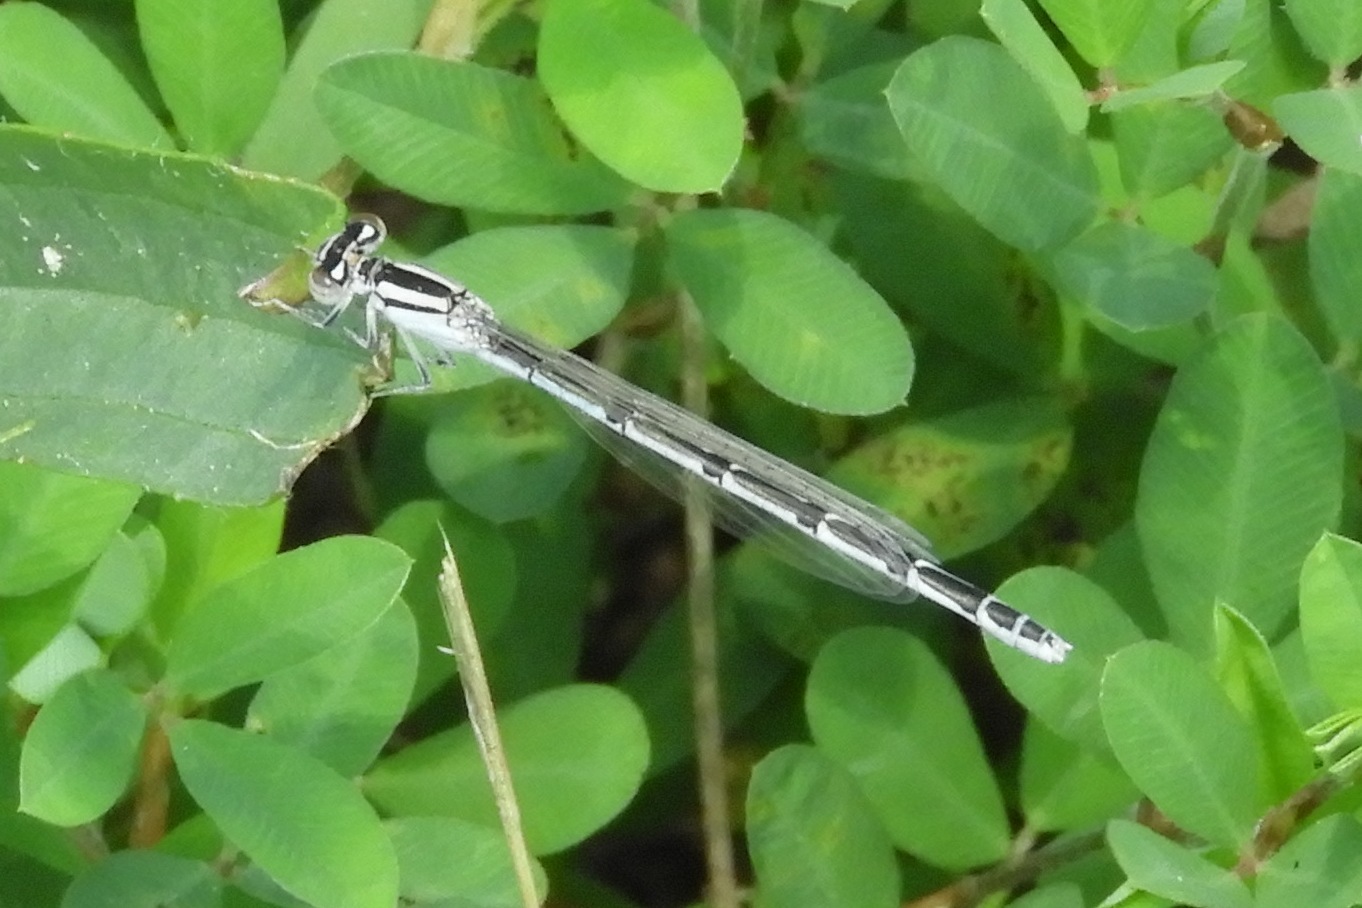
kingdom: Animalia
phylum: Arthropoda
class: Insecta
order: Odonata
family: Coenagrionidae
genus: Enallagma
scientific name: Enallagma civile
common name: Damselfly
